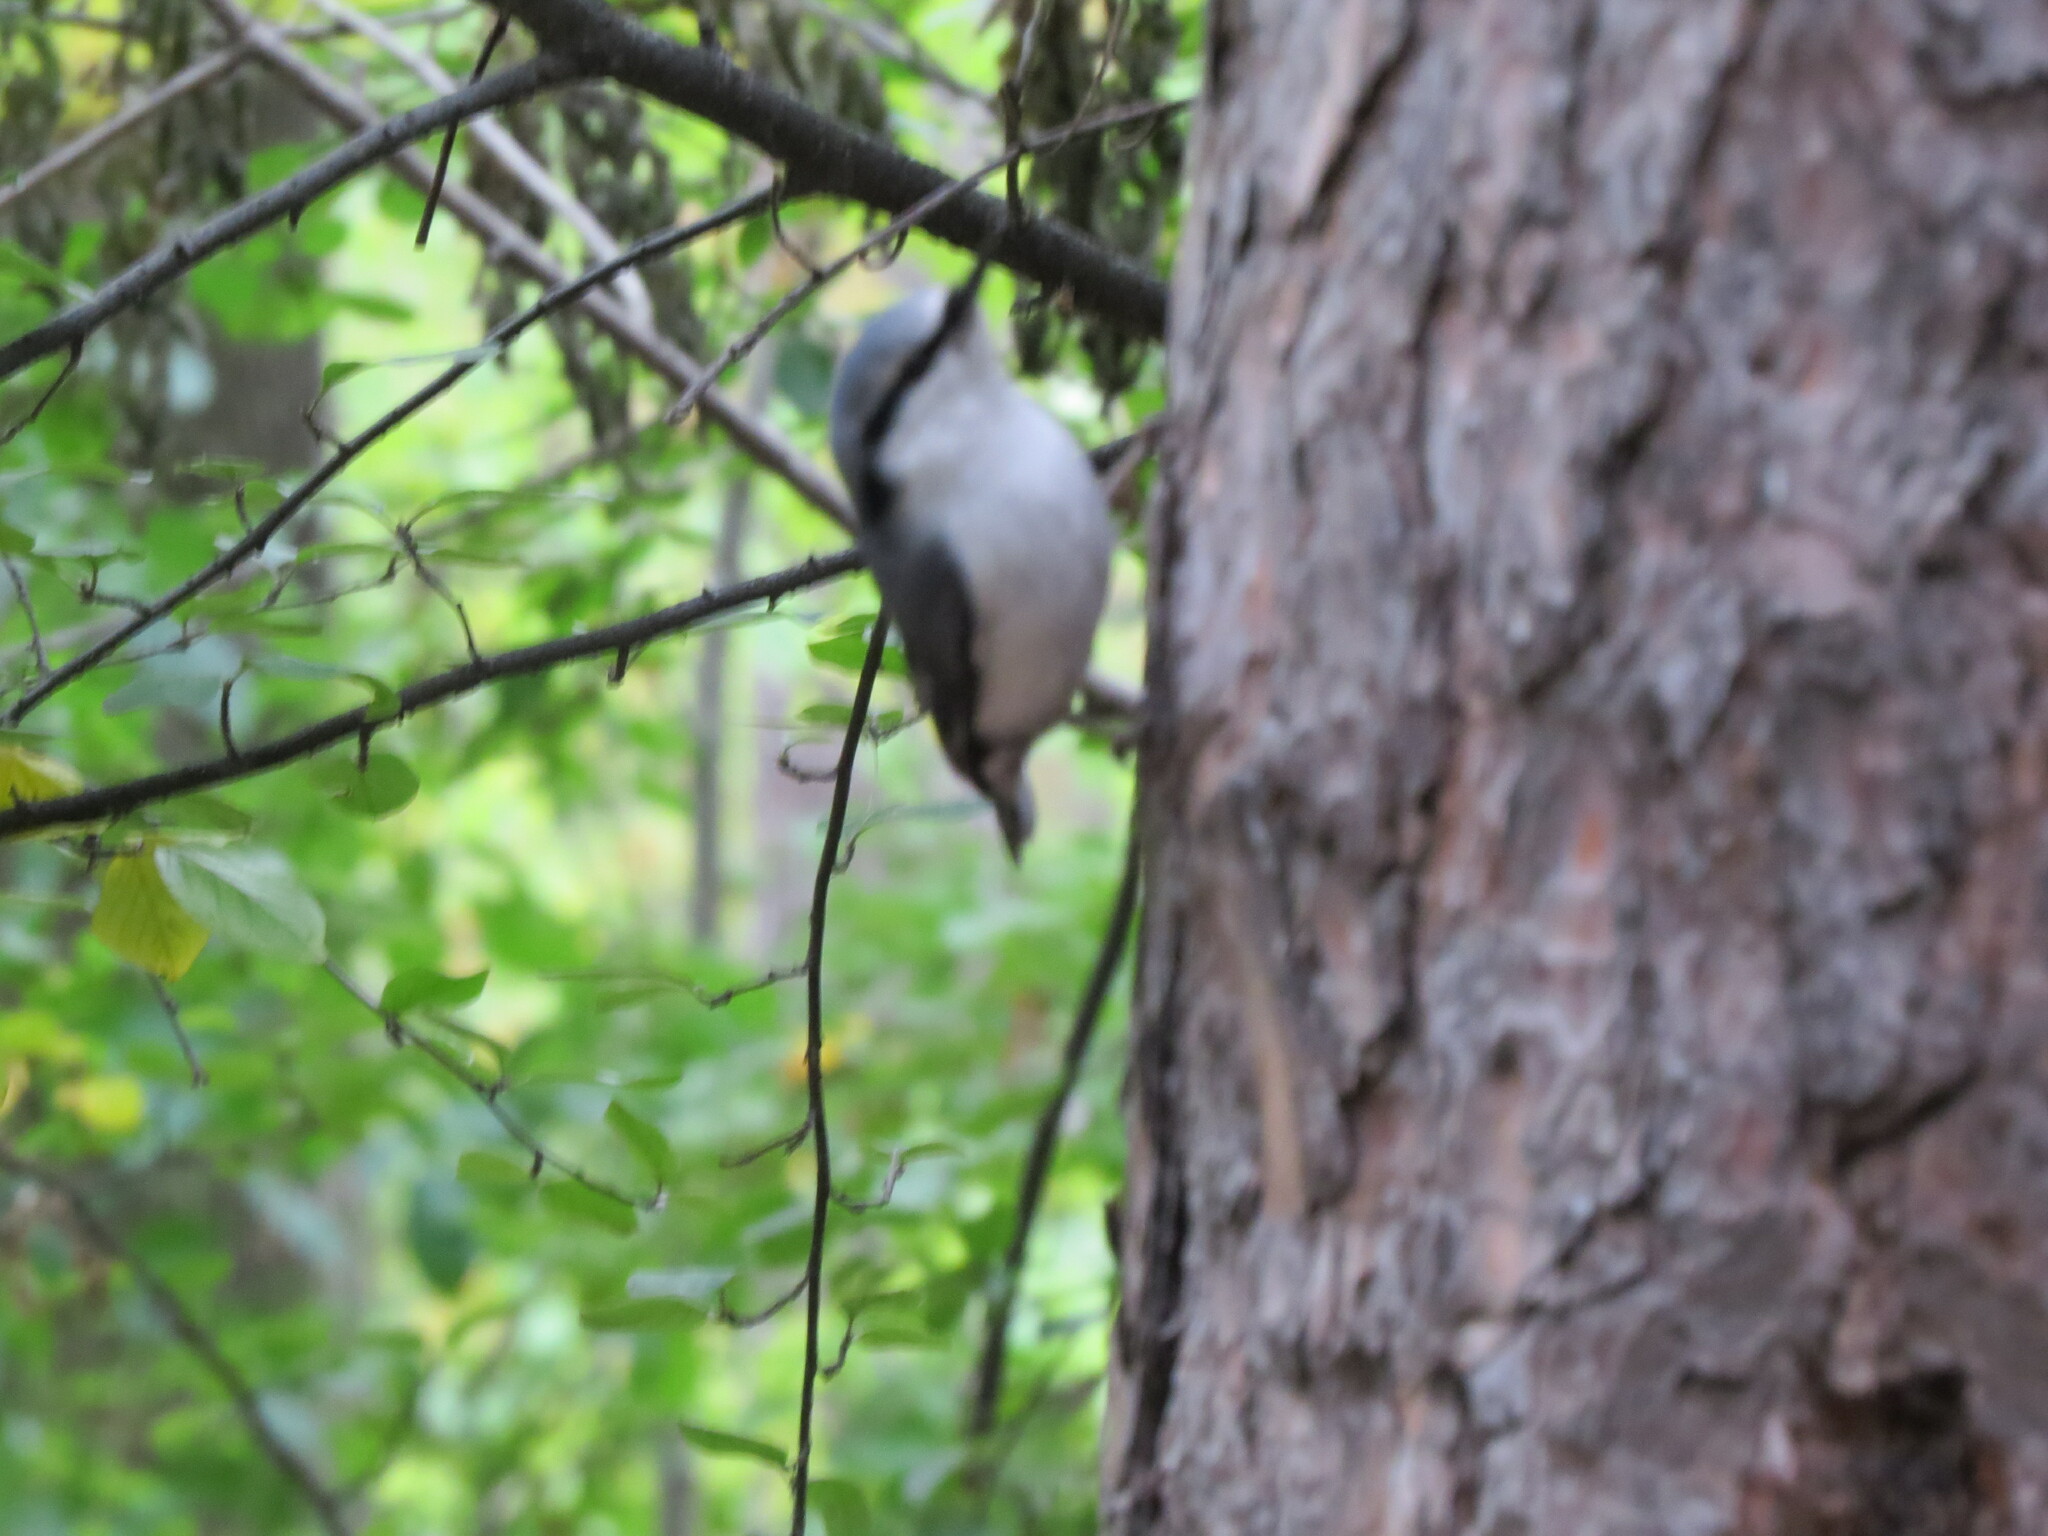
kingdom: Animalia
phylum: Chordata
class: Aves
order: Passeriformes
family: Sittidae
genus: Sitta
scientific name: Sitta europaea
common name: Eurasian nuthatch
